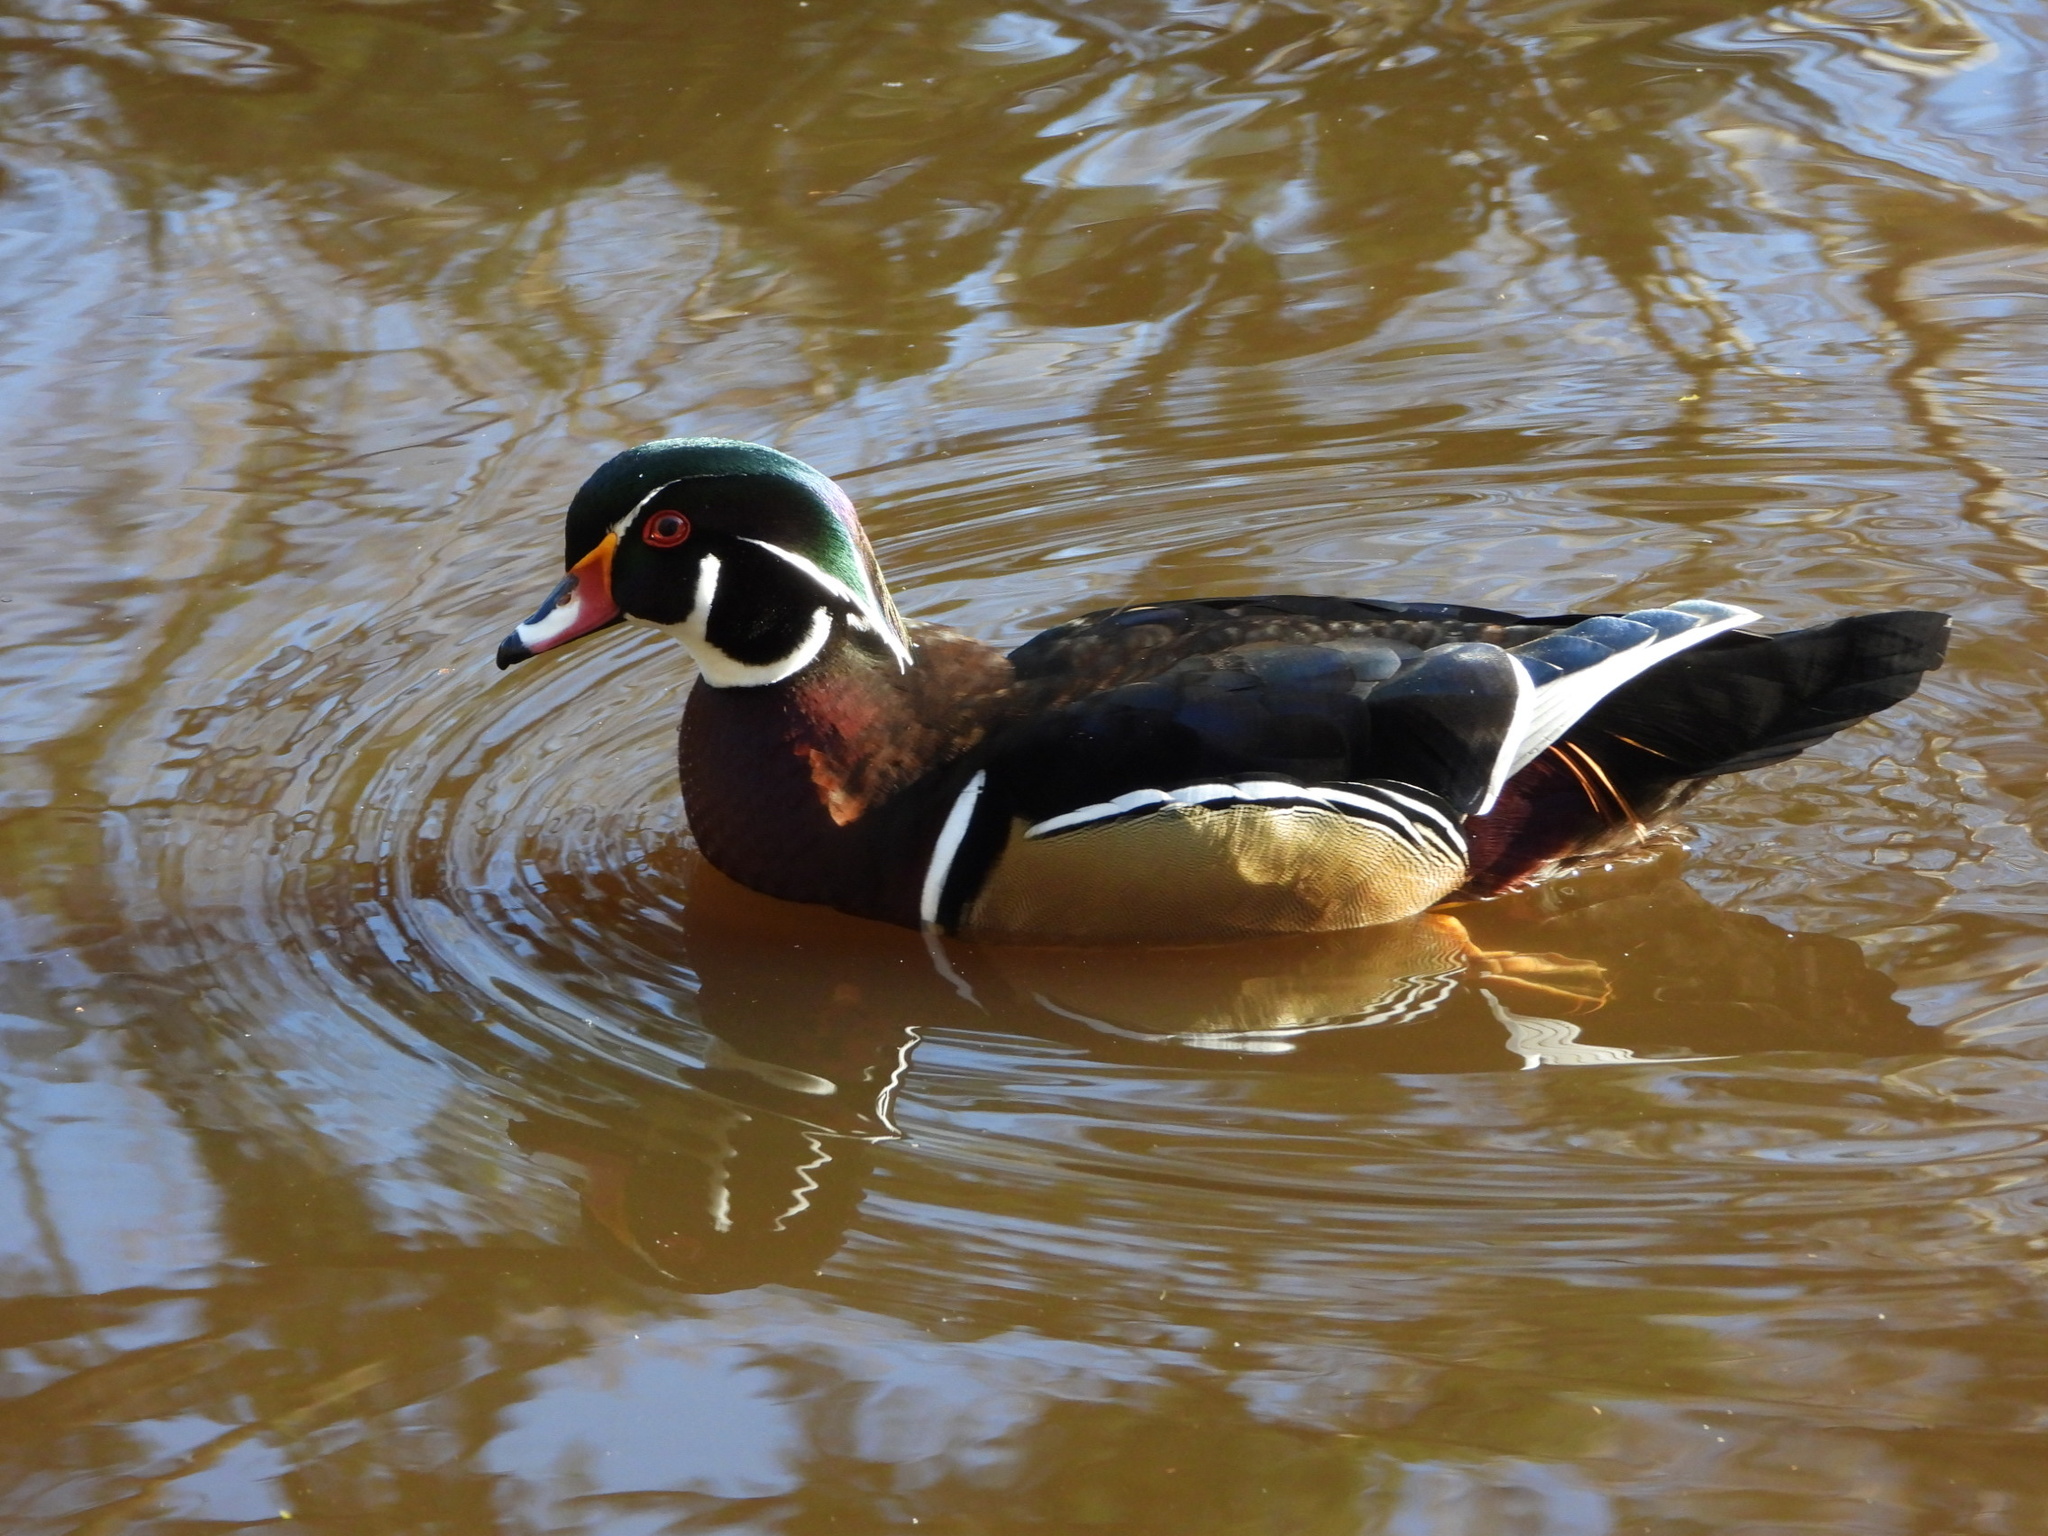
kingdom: Animalia
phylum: Chordata
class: Aves
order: Anseriformes
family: Anatidae
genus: Aix
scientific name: Aix sponsa
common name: Wood duck
